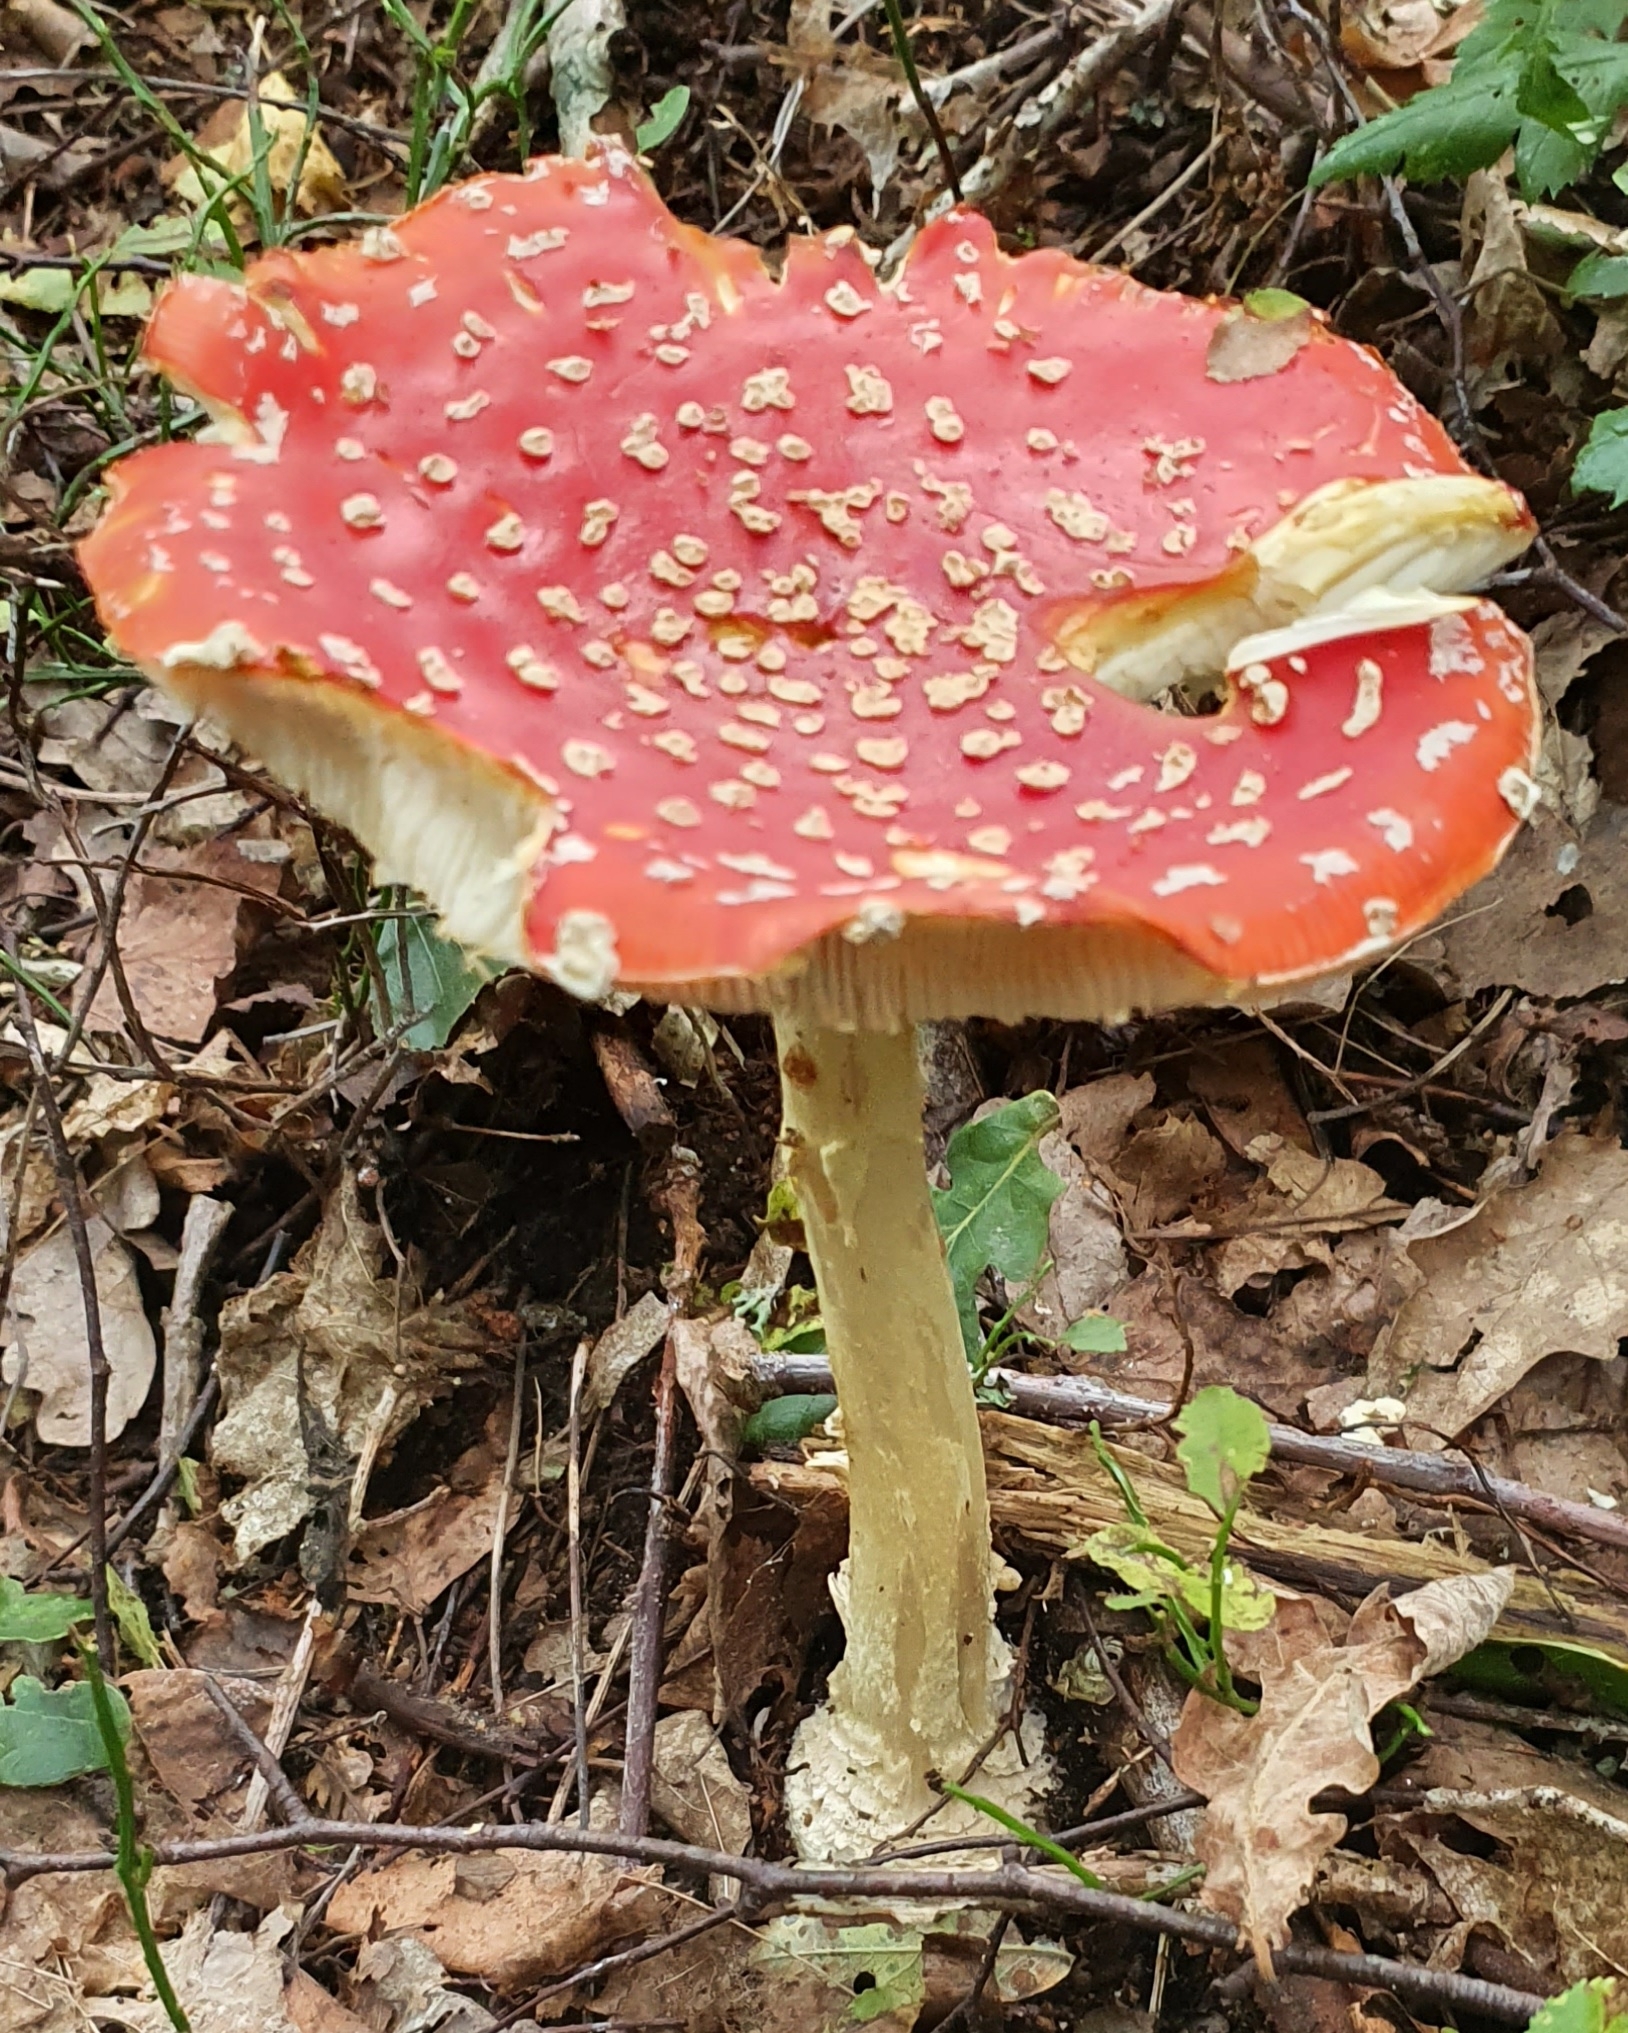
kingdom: Fungi
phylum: Basidiomycota
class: Agaricomycetes
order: Agaricales
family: Amanitaceae
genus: Amanita
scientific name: Amanita muscaria
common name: Fly agaric
